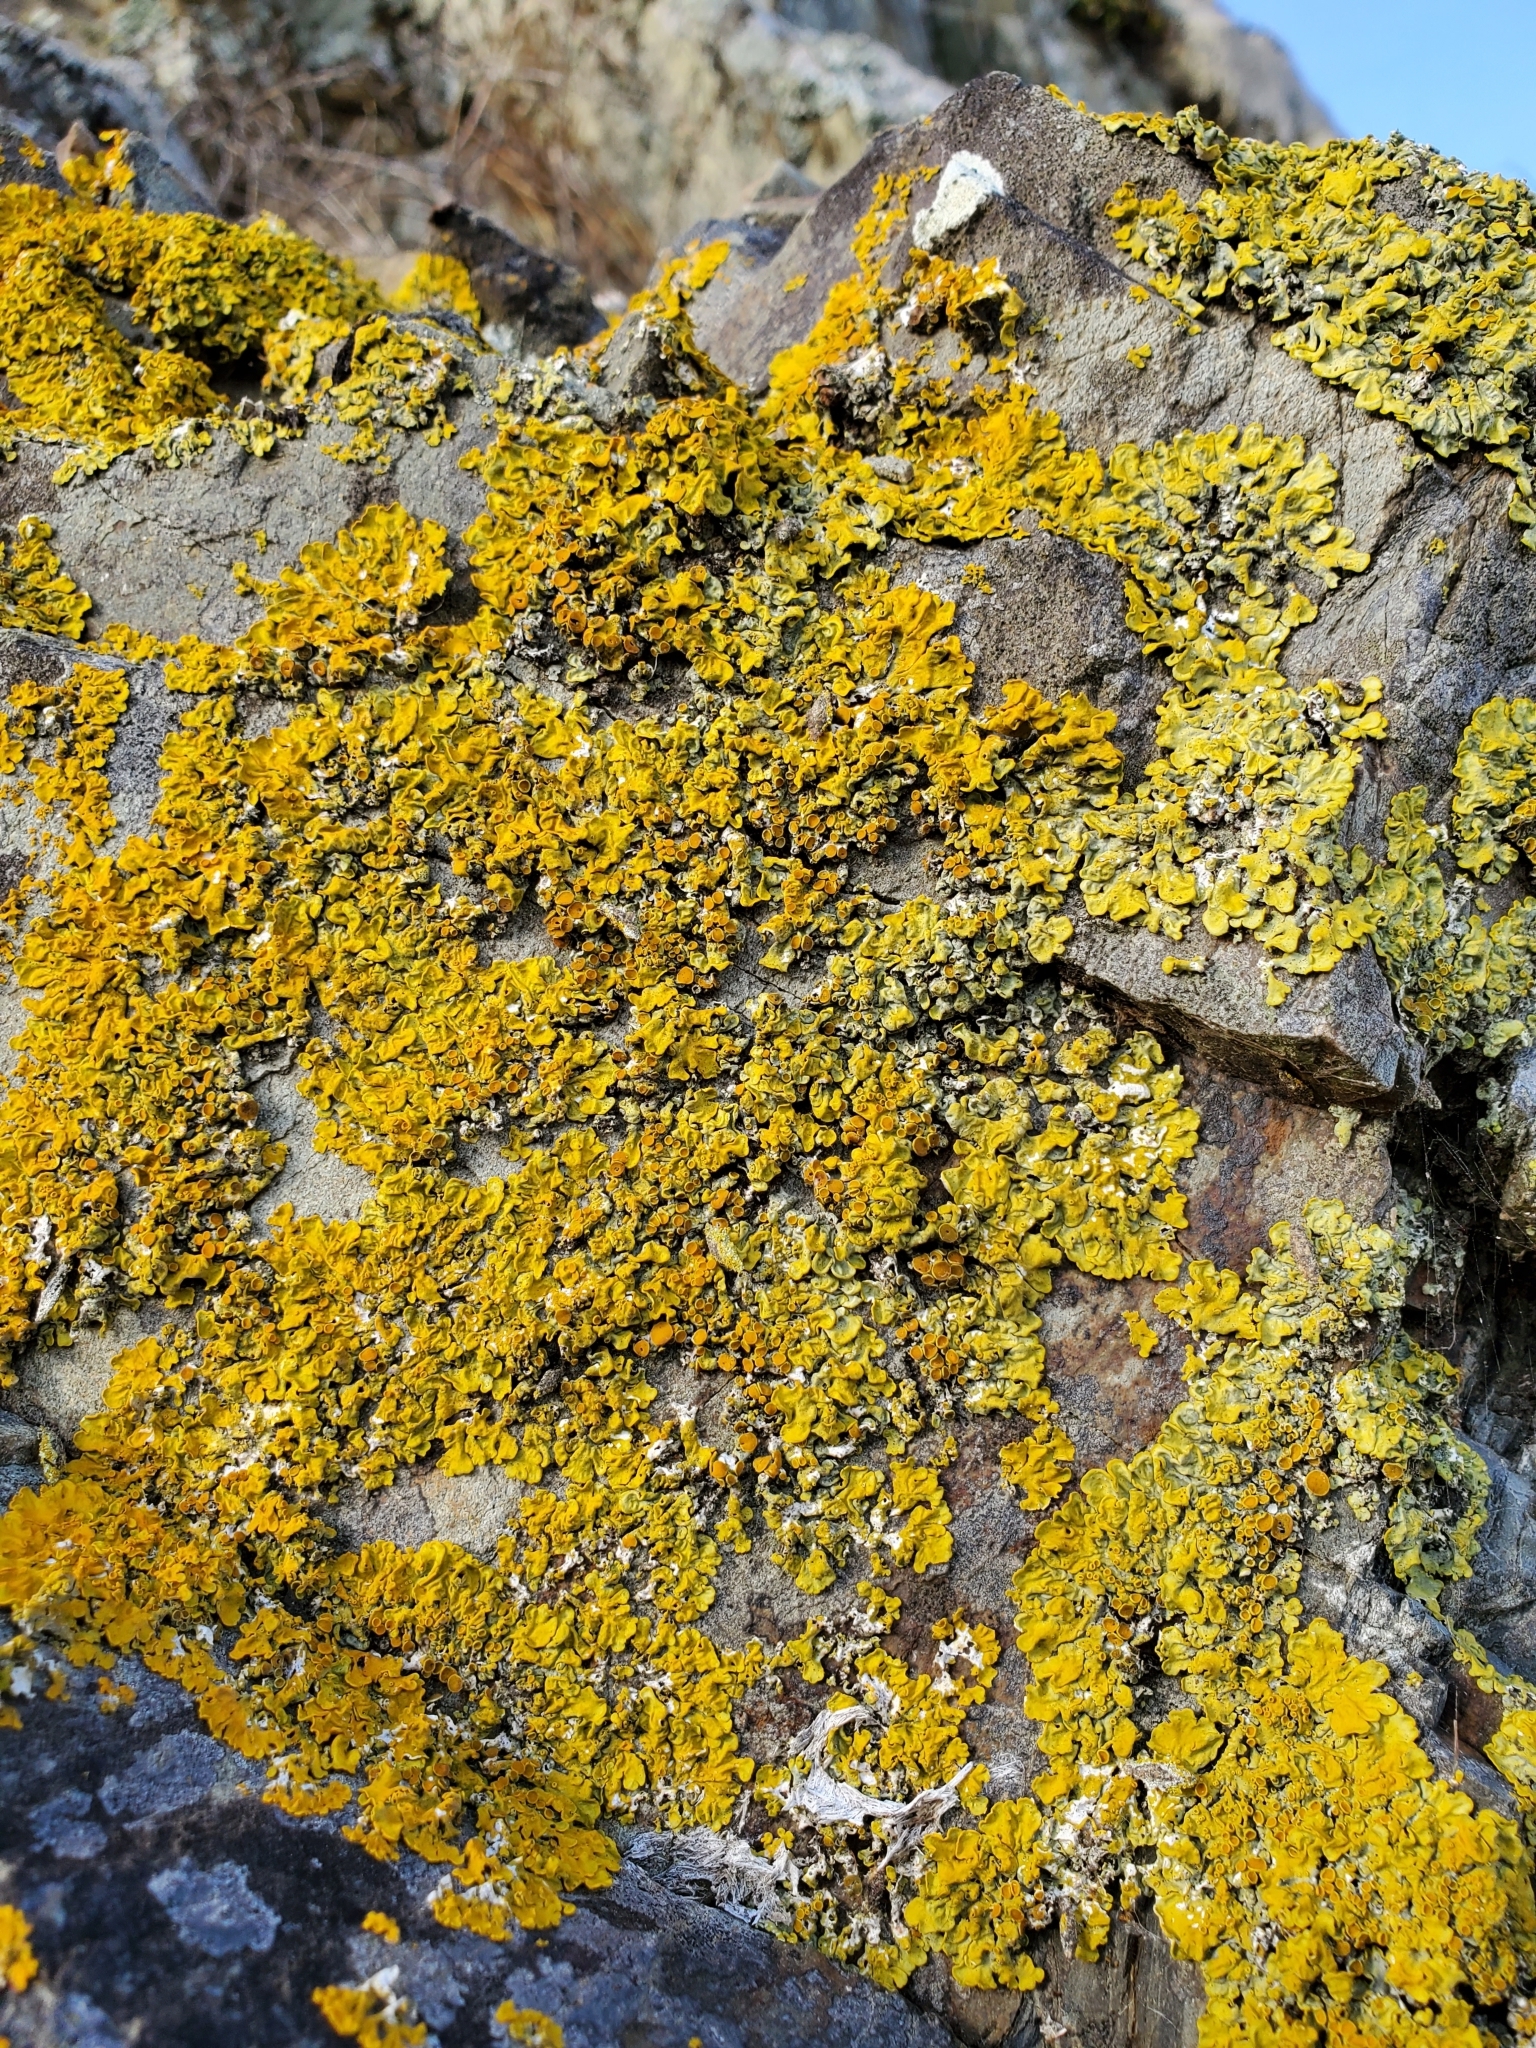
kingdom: Fungi
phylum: Ascomycota
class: Lecanoromycetes
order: Teloschistales
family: Teloschistaceae
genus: Xanthoria
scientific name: Xanthoria parietina
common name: Common orange lichen
